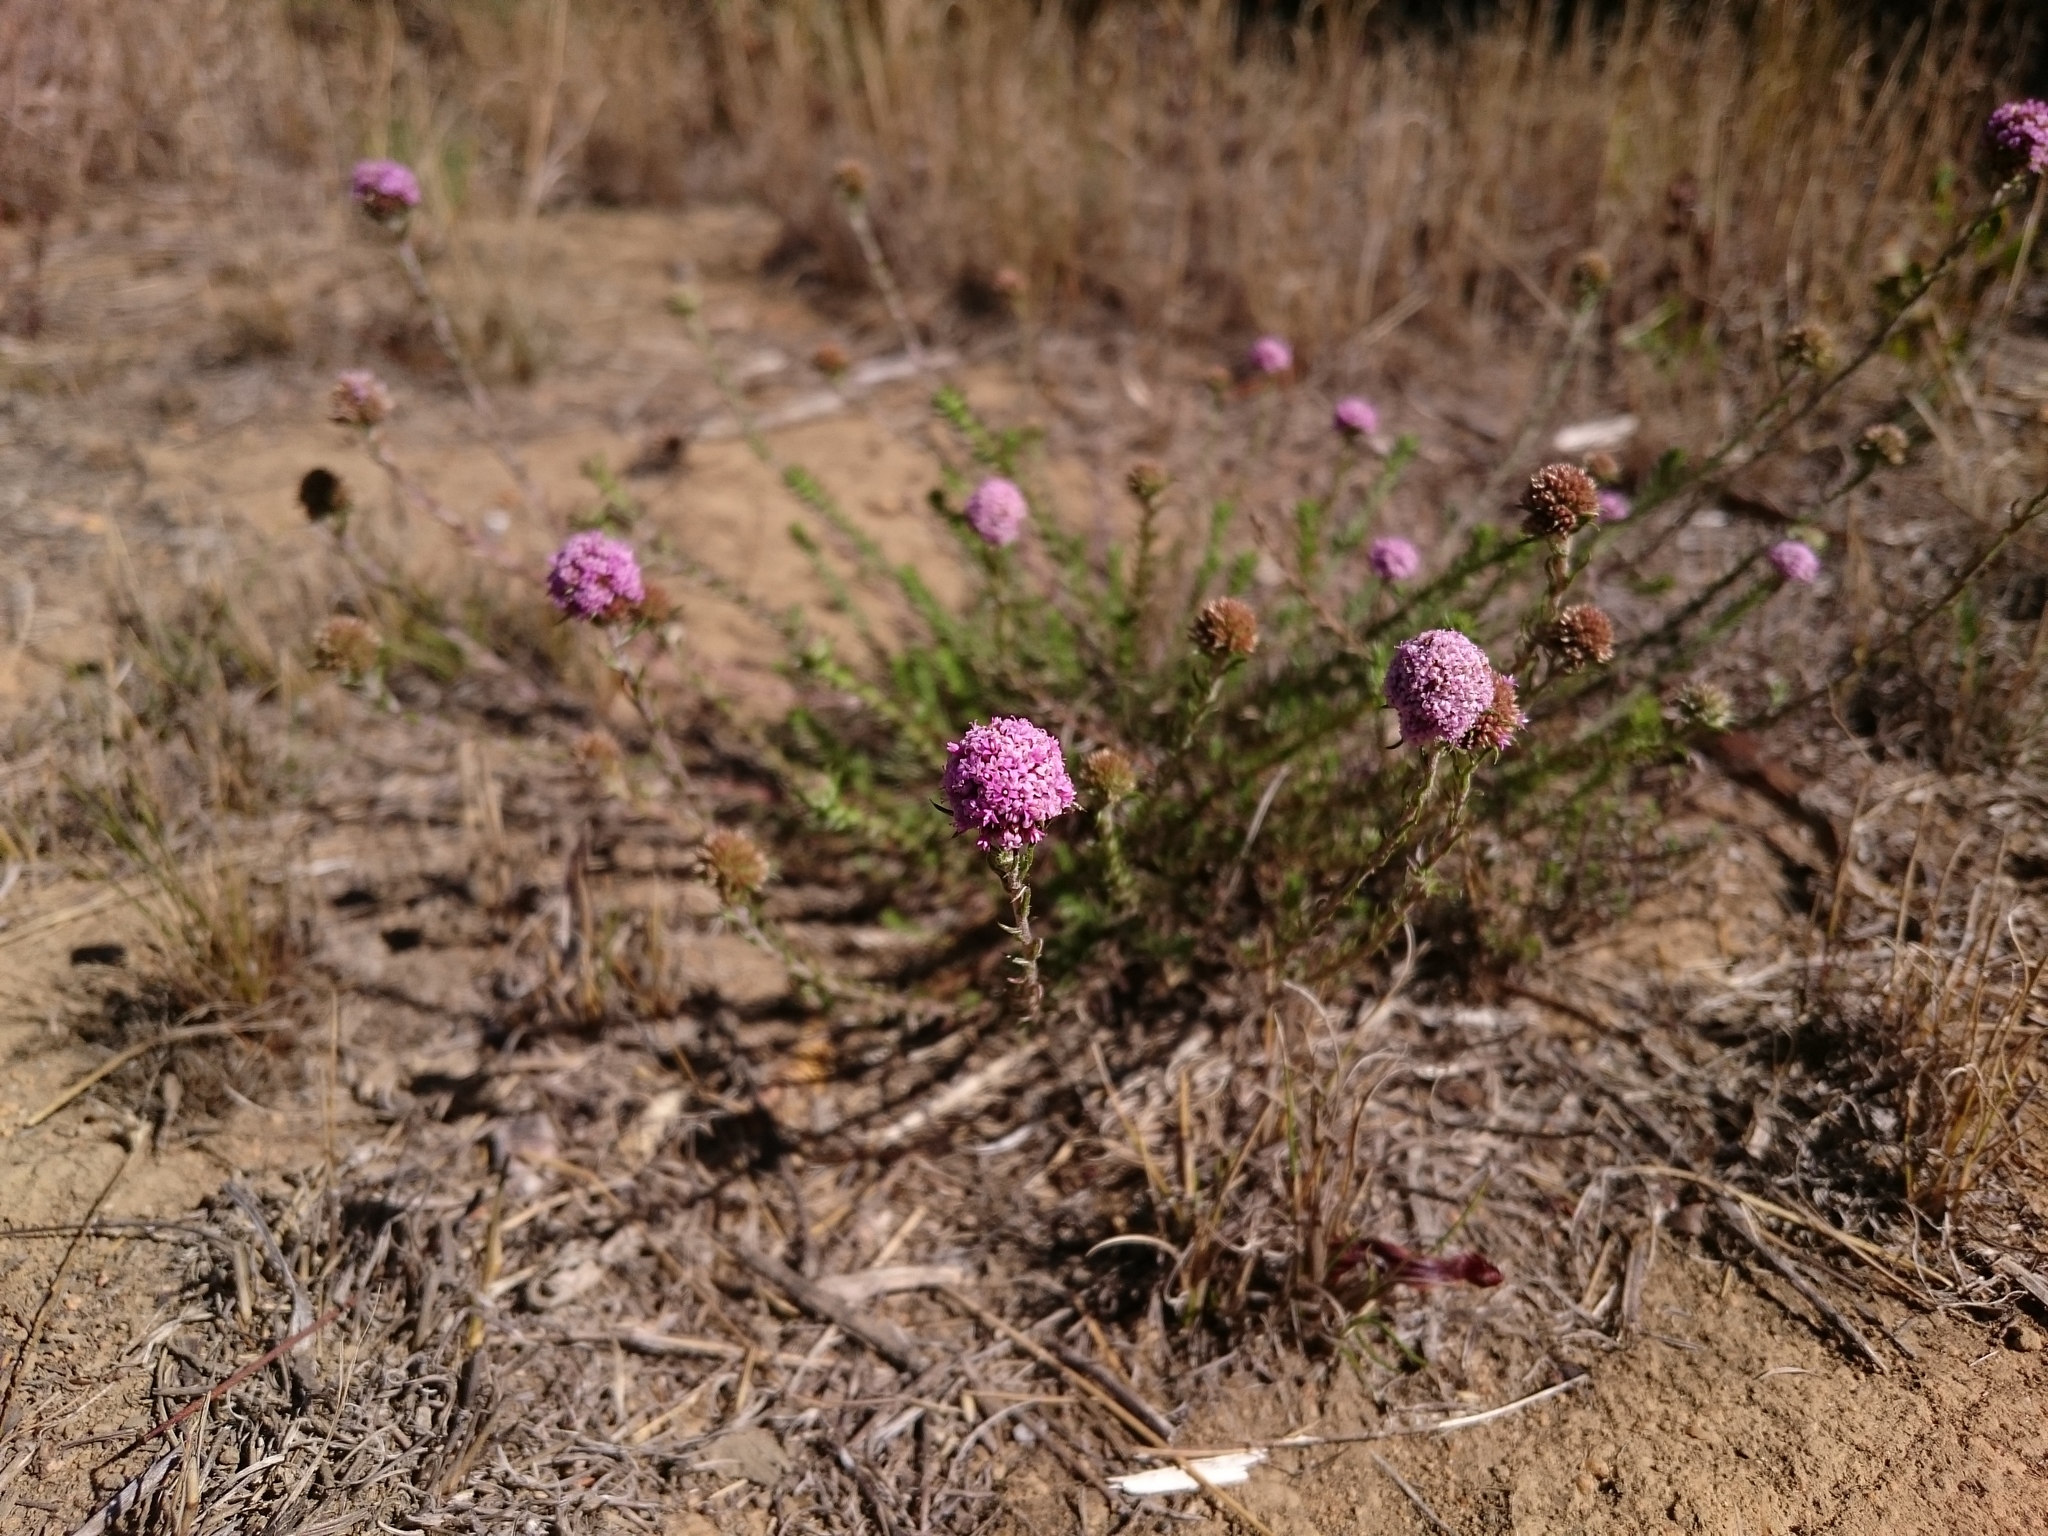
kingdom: Plantae
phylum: Tracheophyta
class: Magnoliopsida
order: Asterales
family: Asteraceae
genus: Stoebe
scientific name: Stoebe capitata
